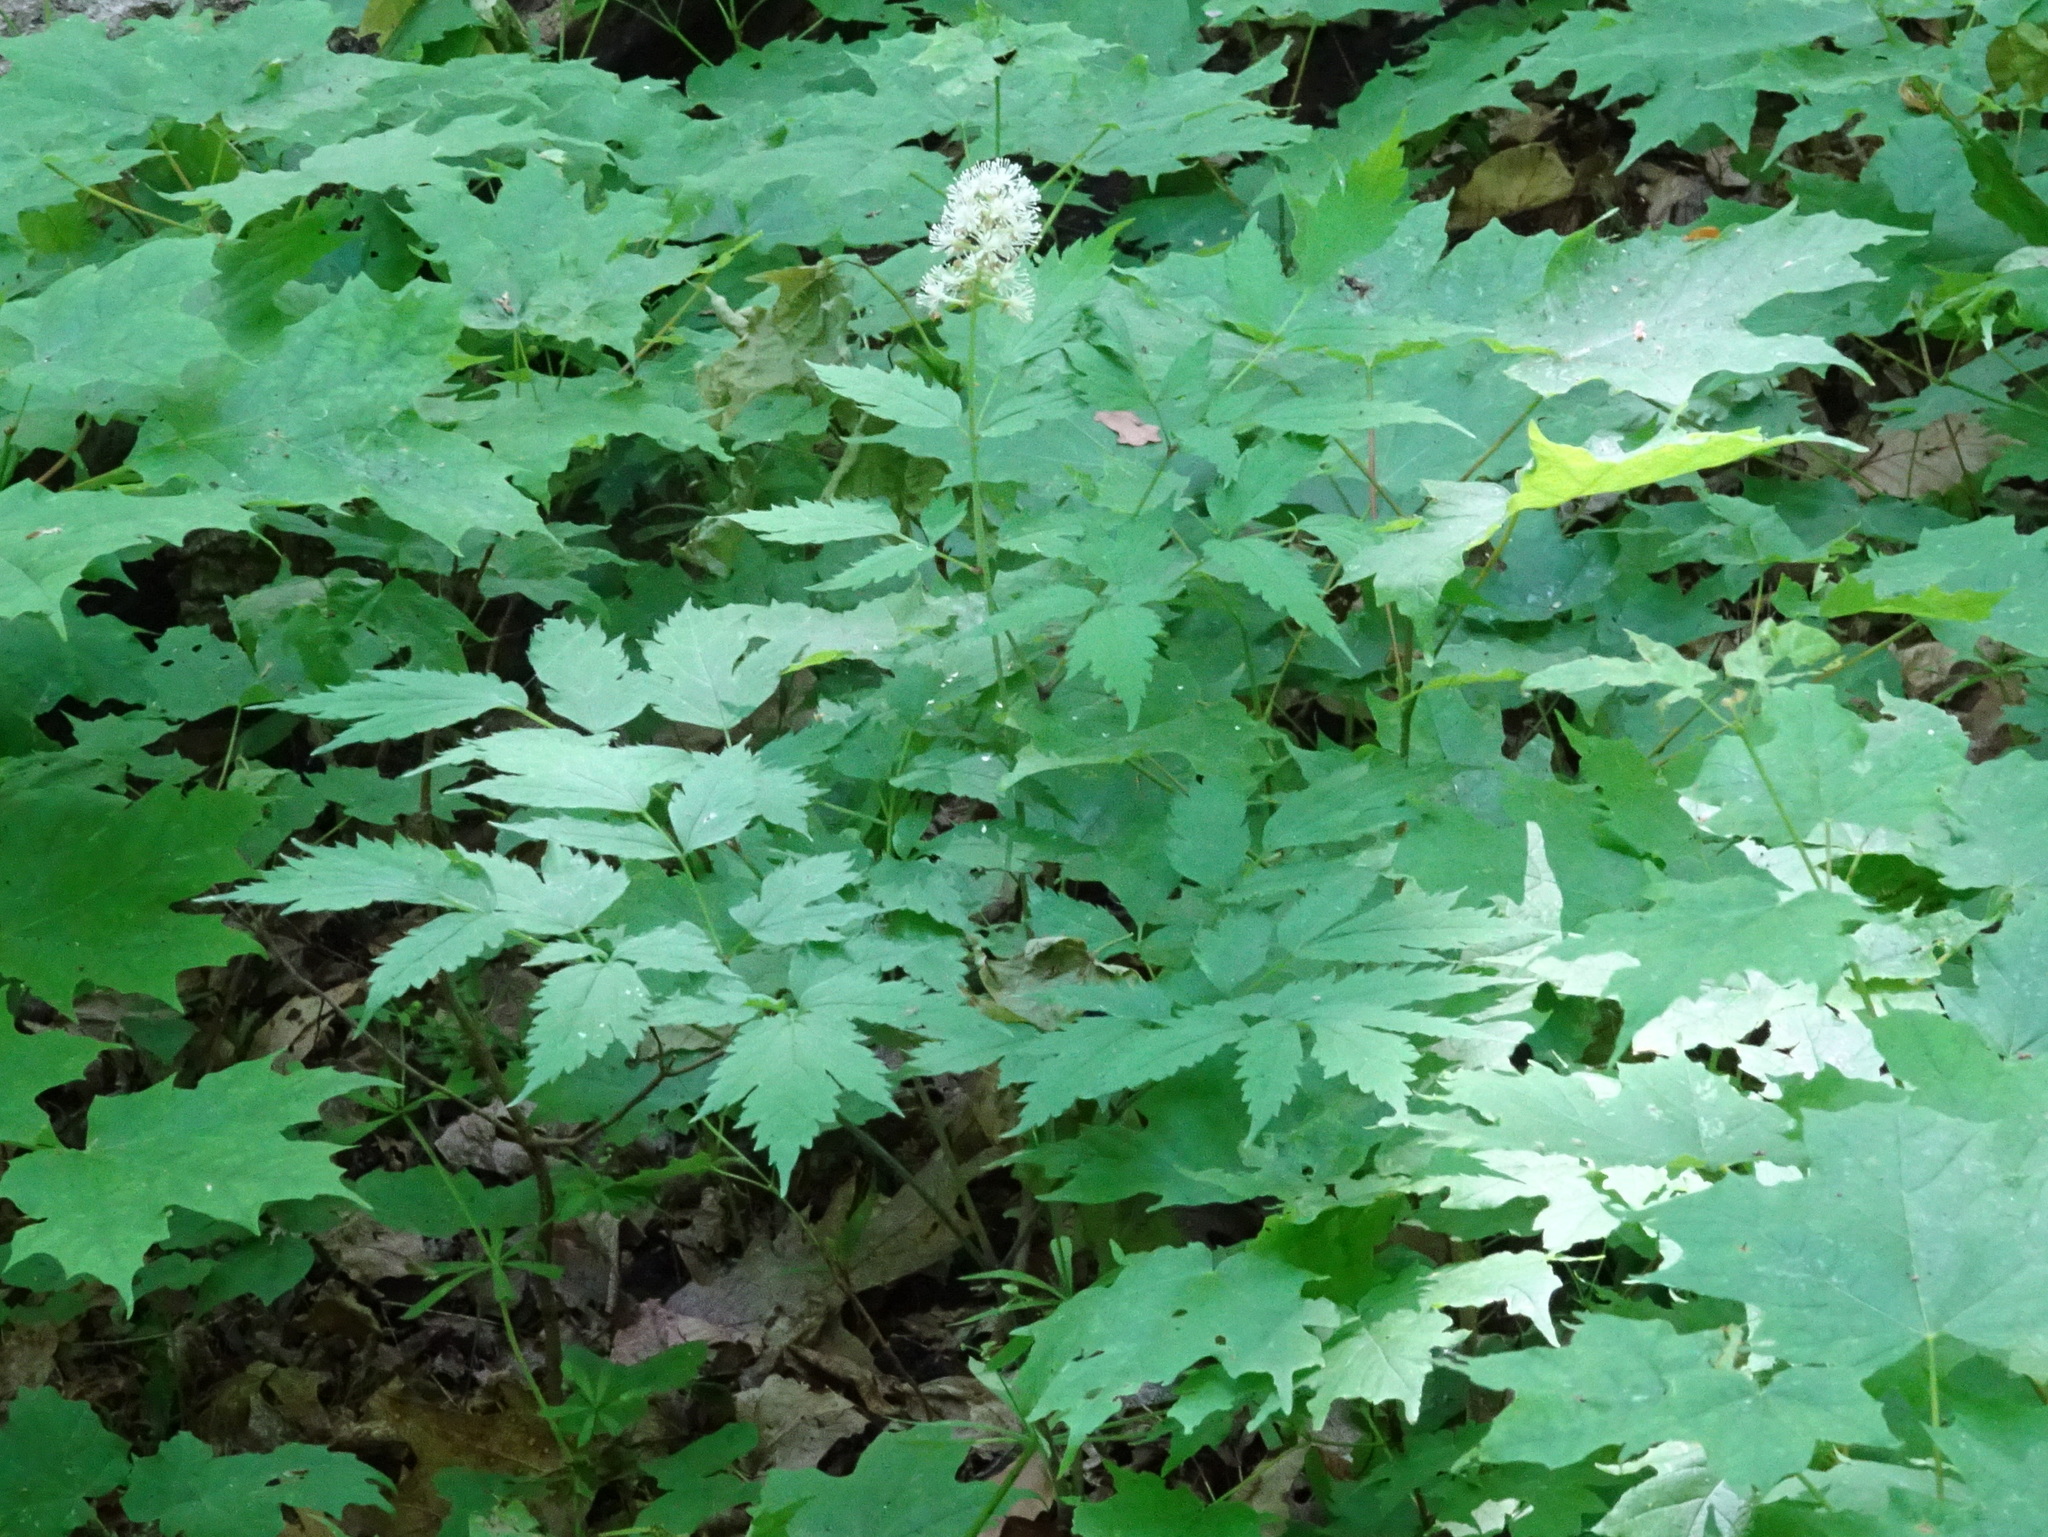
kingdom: Plantae
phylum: Tracheophyta
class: Magnoliopsida
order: Ranunculales
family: Ranunculaceae
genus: Actaea
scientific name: Actaea pachypoda
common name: Doll's-eyes
